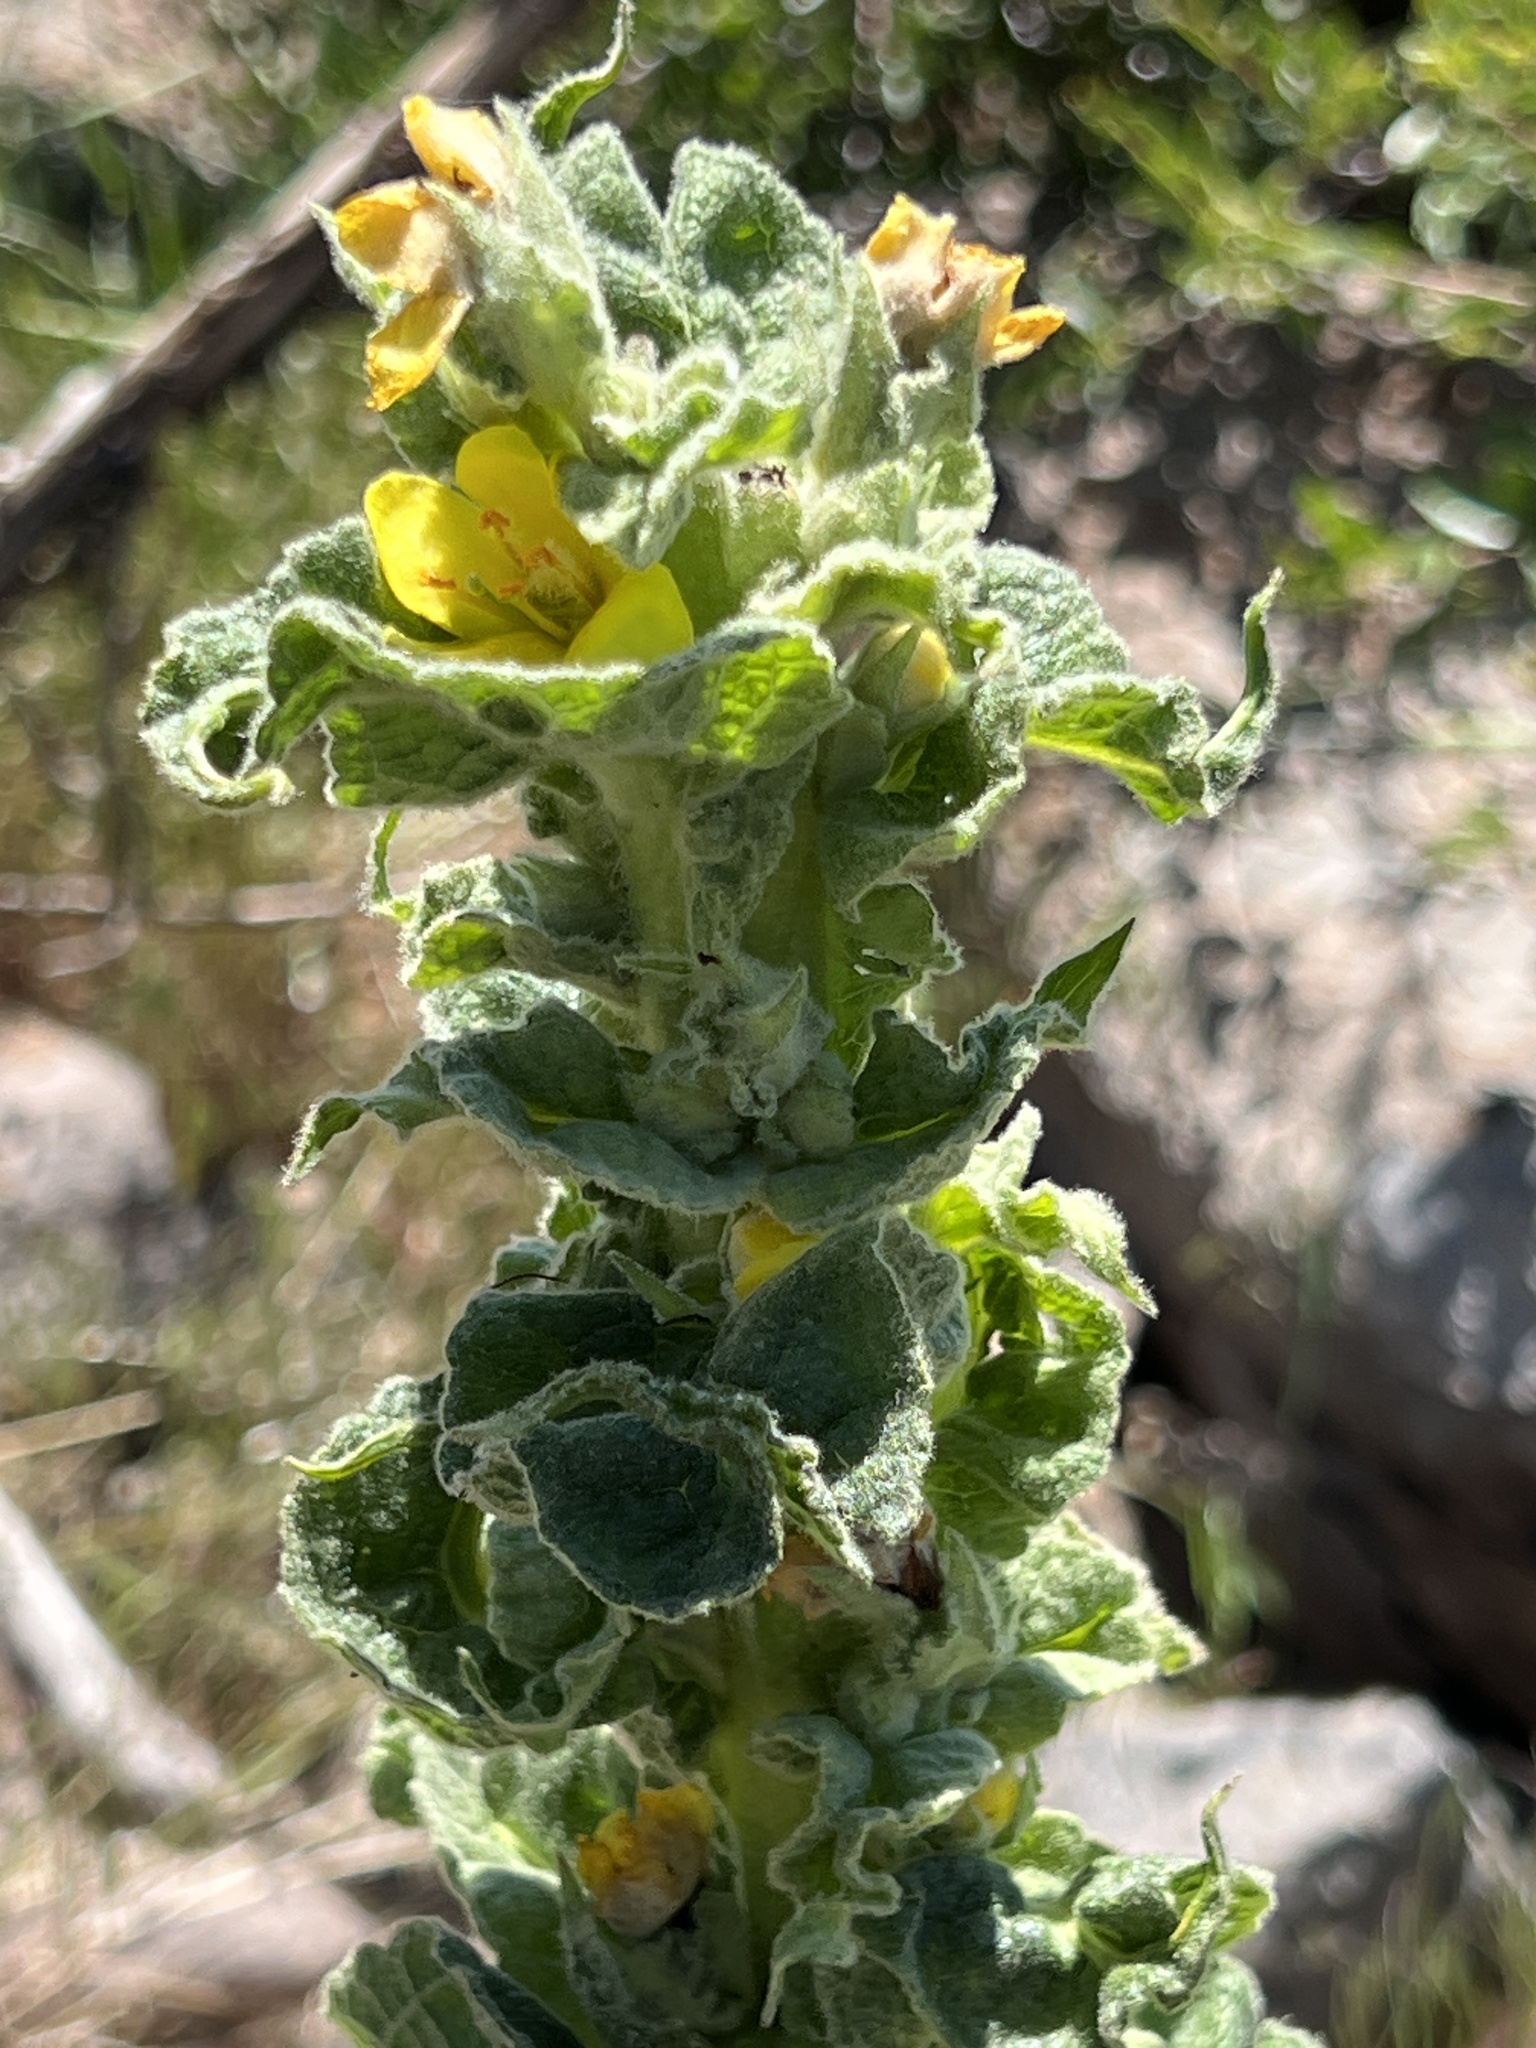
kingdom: Plantae
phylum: Tracheophyta
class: Magnoliopsida
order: Lamiales
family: Scrophulariaceae
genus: Verbascum
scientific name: Verbascum thapsus
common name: Common mullein
